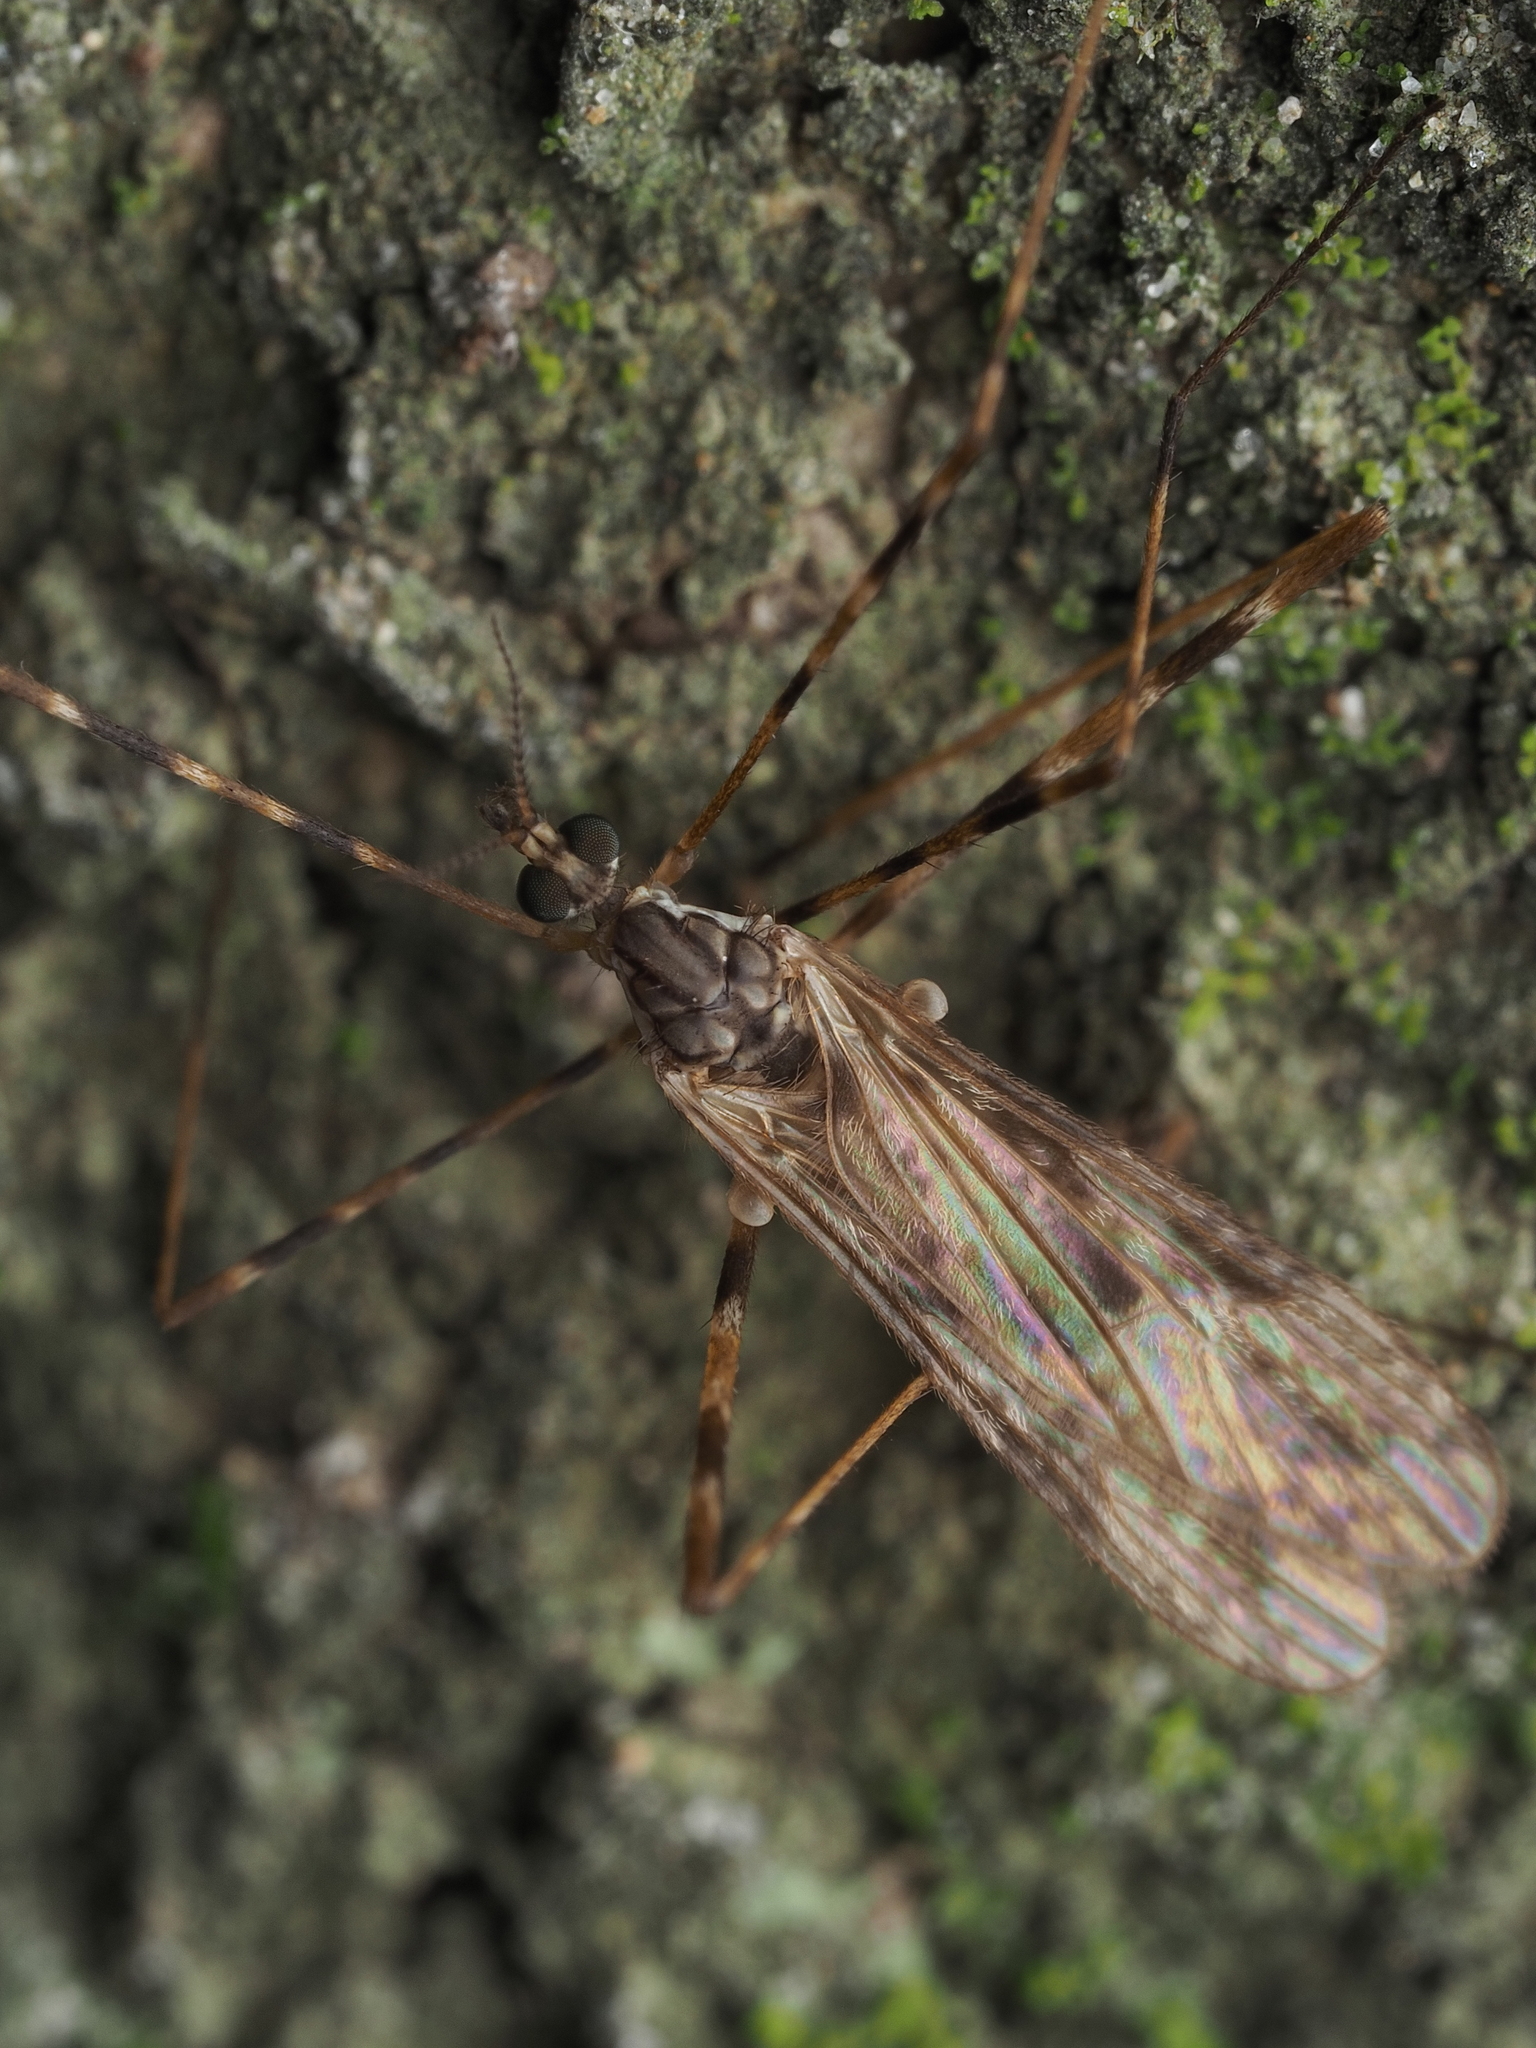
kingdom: Animalia
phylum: Arthropoda
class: Insecta
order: Diptera
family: Limoniidae
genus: Amphineurus
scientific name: Amphineurus hudsoni
